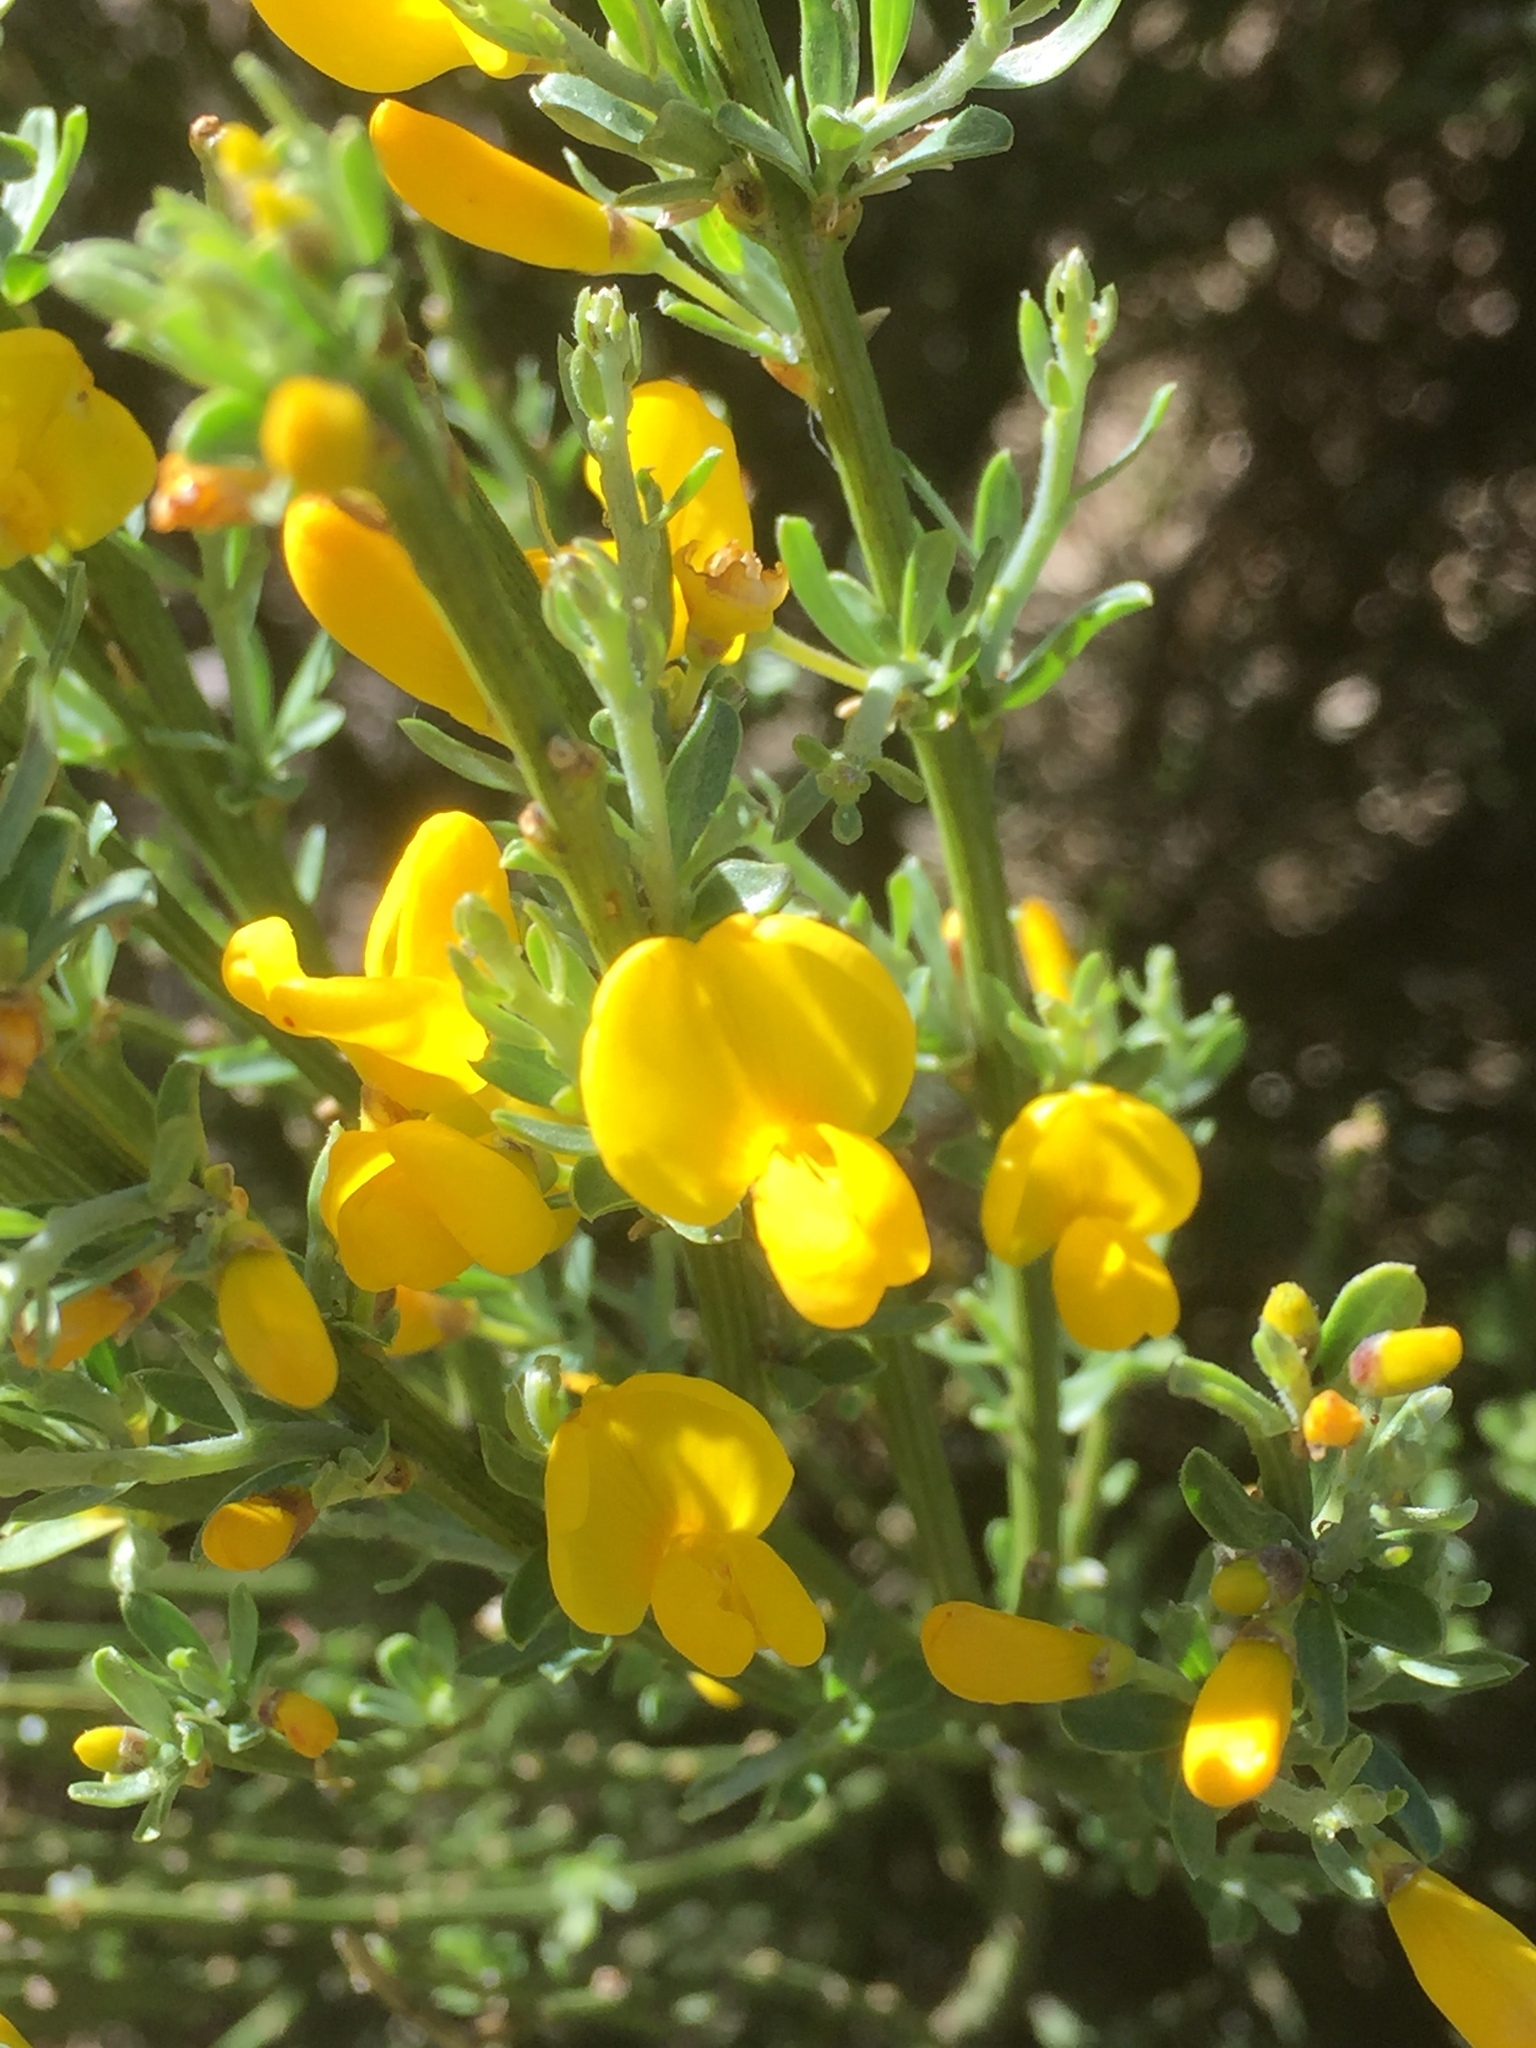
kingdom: Plantae
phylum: Tracheophyta
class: Magnoliopsida
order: Fabales
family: Fabaceae
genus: Cytisus
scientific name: Cytisus oromediterraneus
